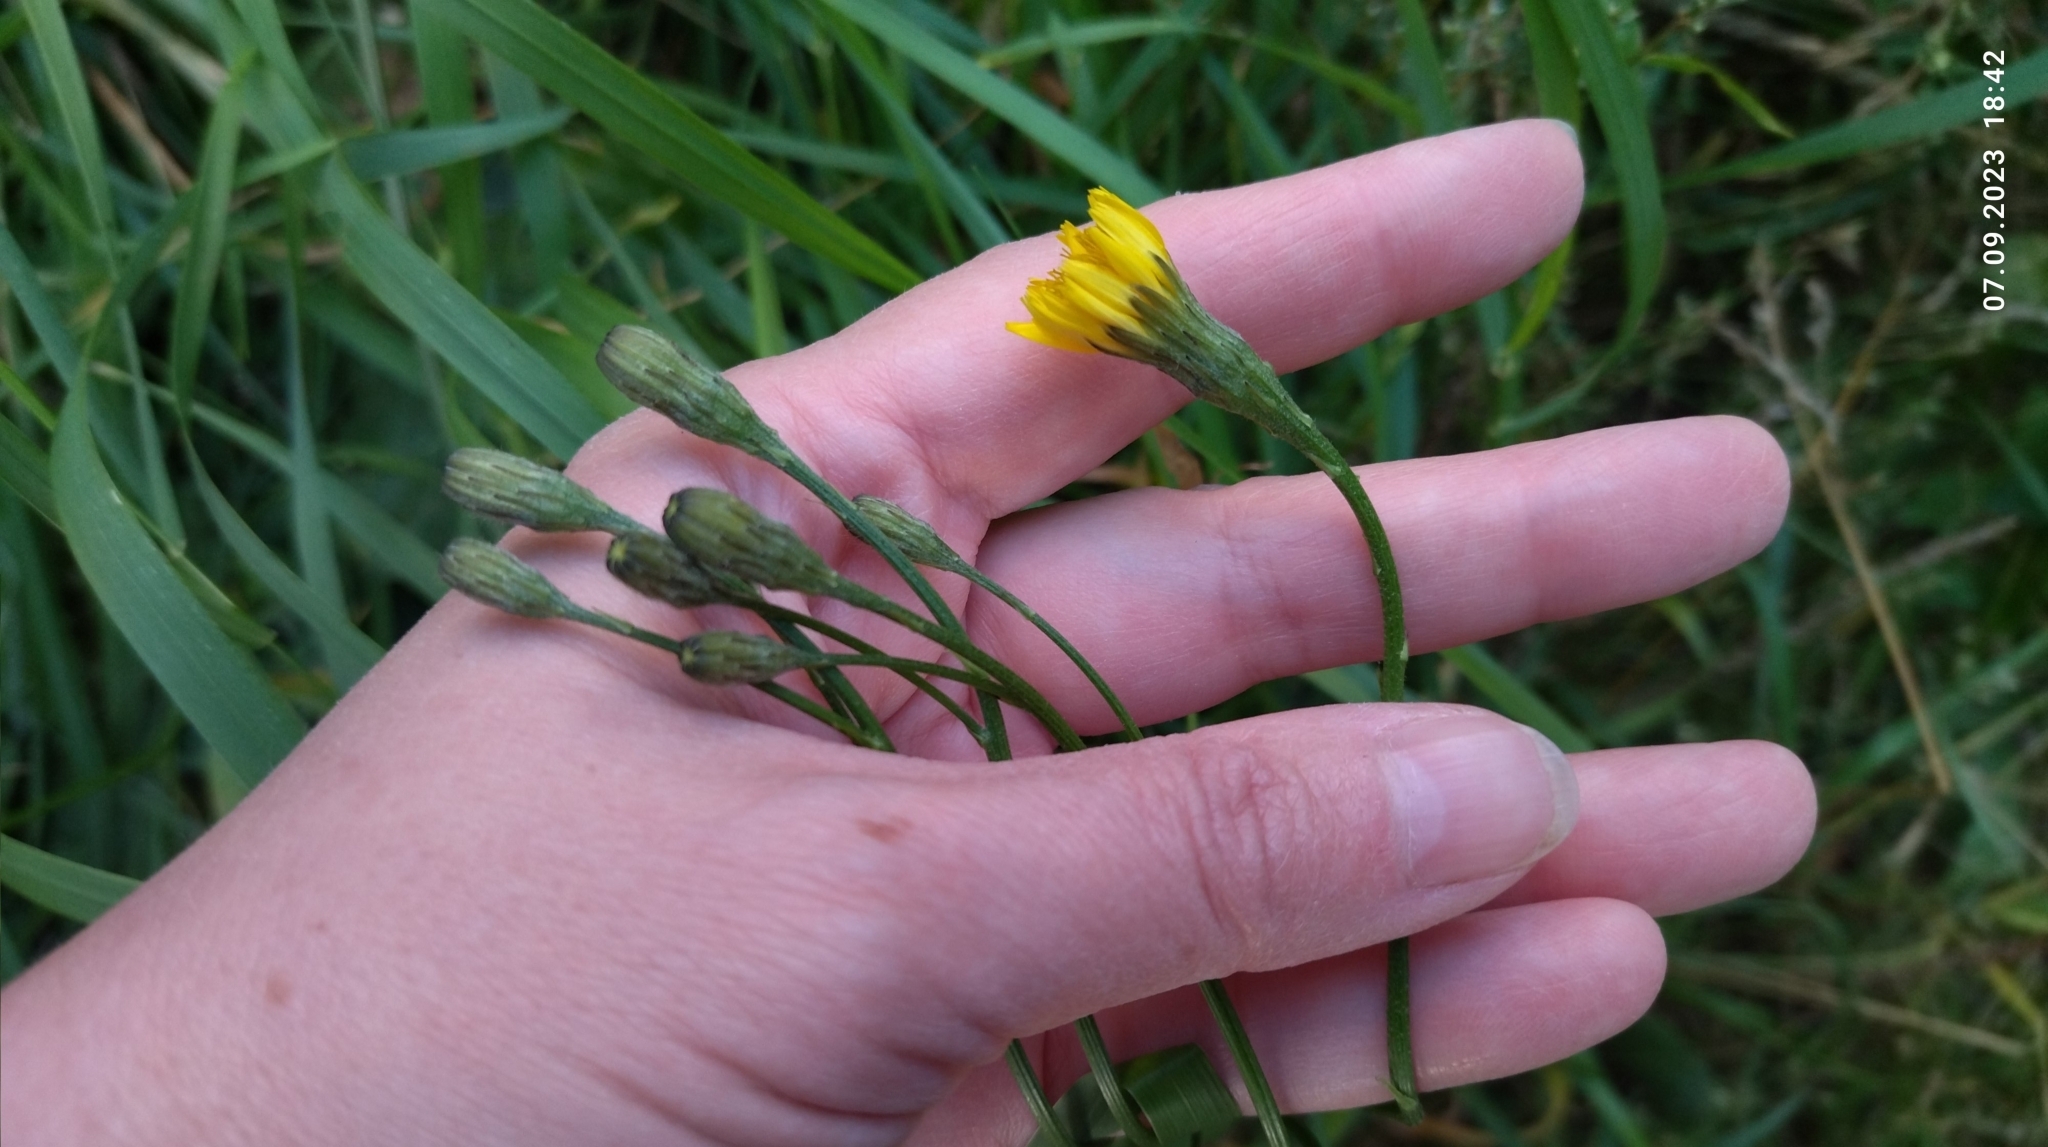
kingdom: Plantae
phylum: Tracheophyta
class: Magnoliopsida
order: Asterales
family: Asteraceae
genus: Scorzoneroides
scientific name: Scorzoneroides autumnalis
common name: Autumn hawkbit
